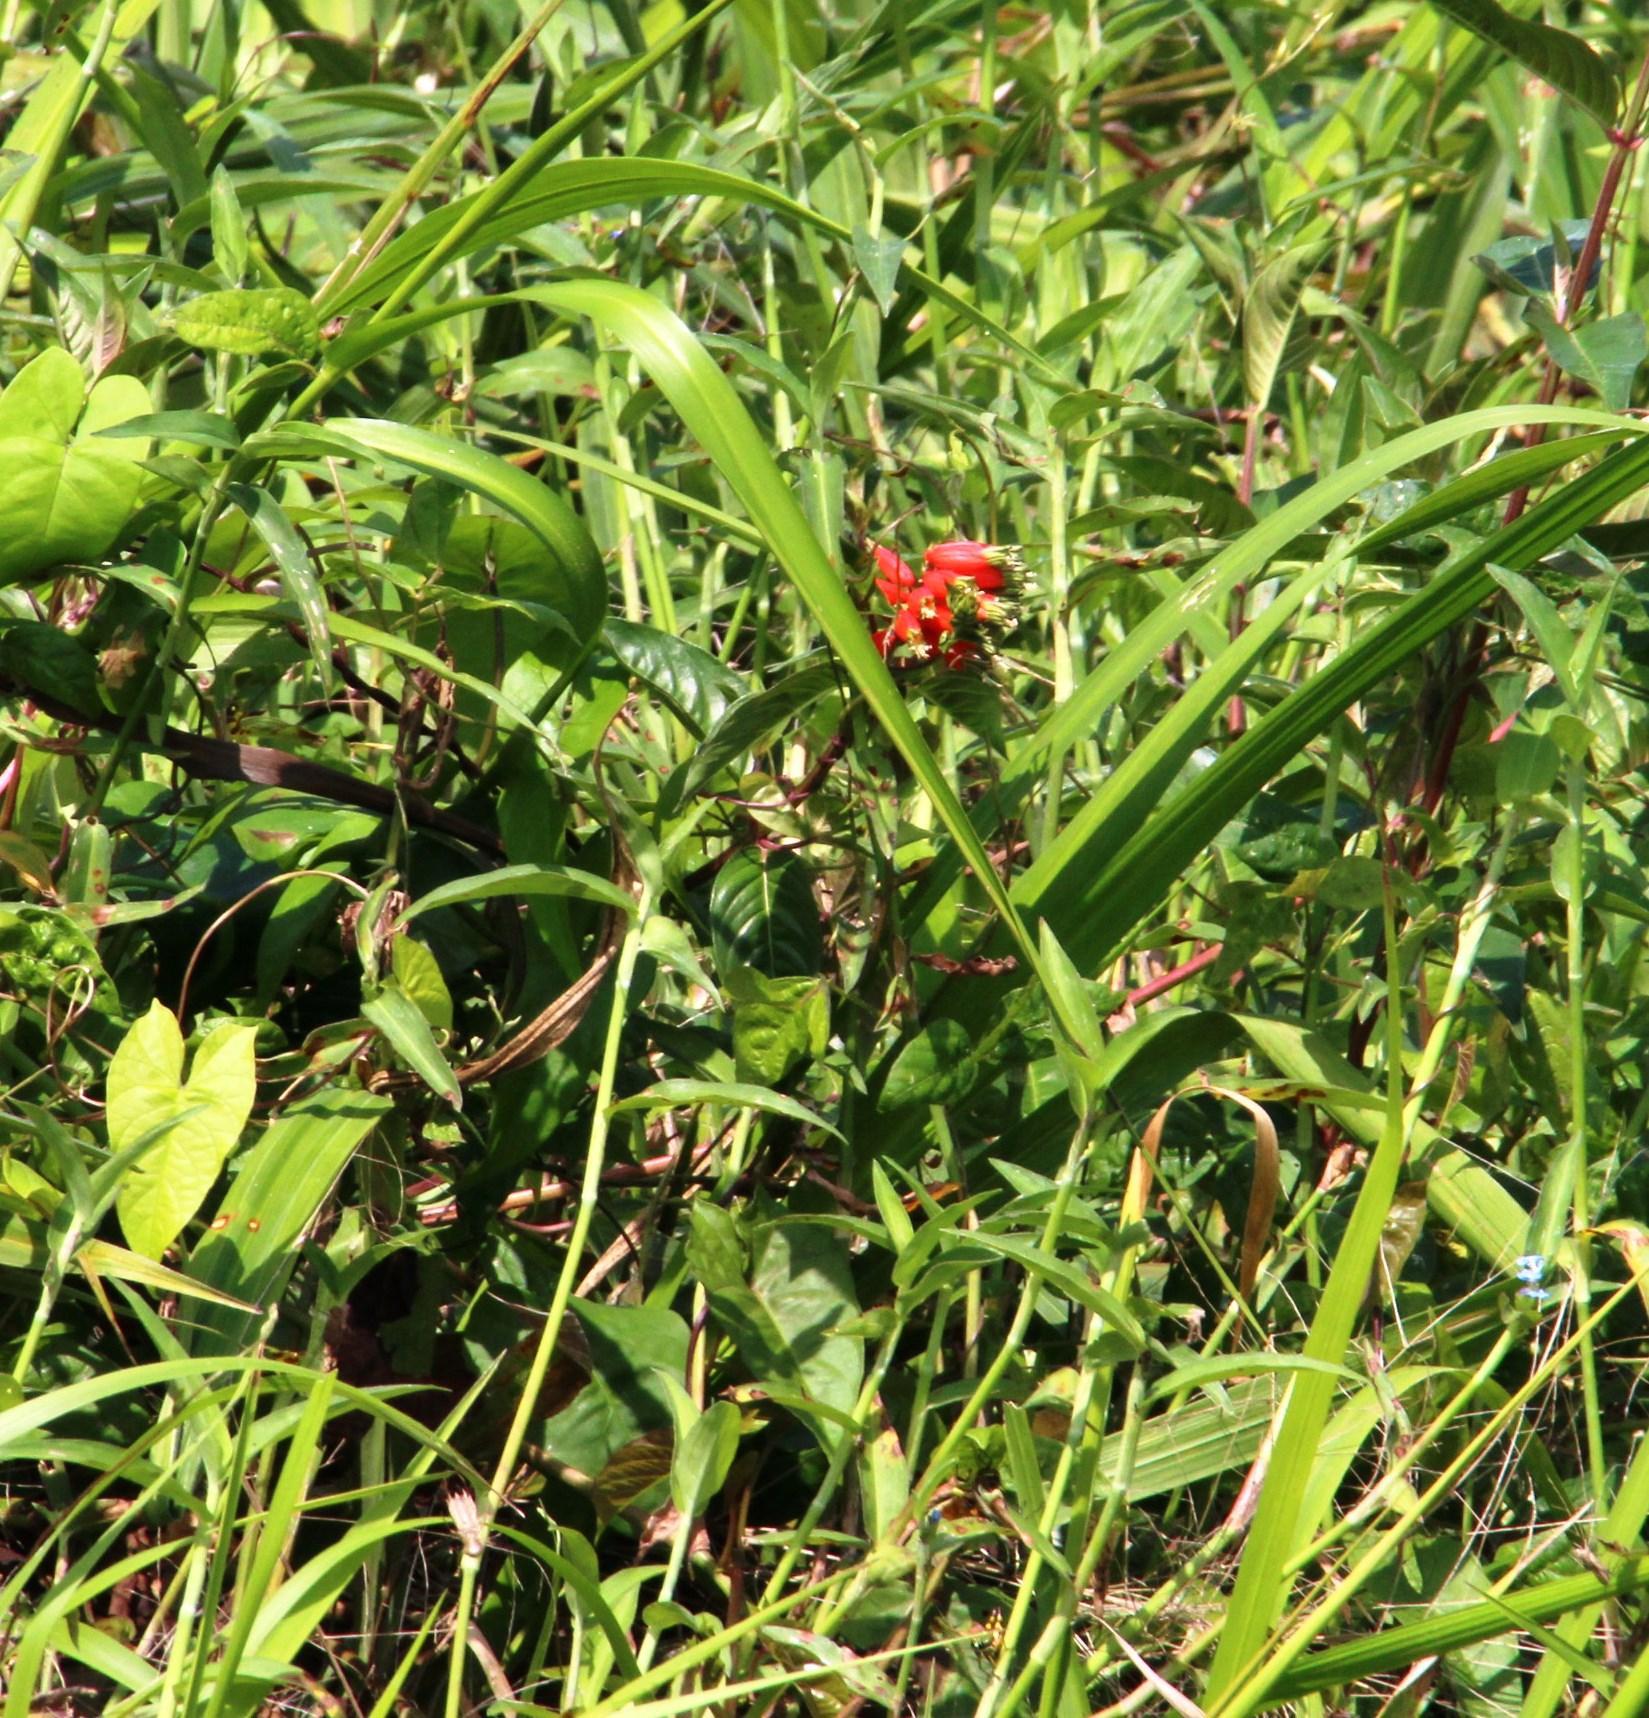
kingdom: Plantae
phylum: Tracheophyta
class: Magnoliopsida
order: Myrtales
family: Lythraceae
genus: Cuphea
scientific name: Cuphea melvilla
